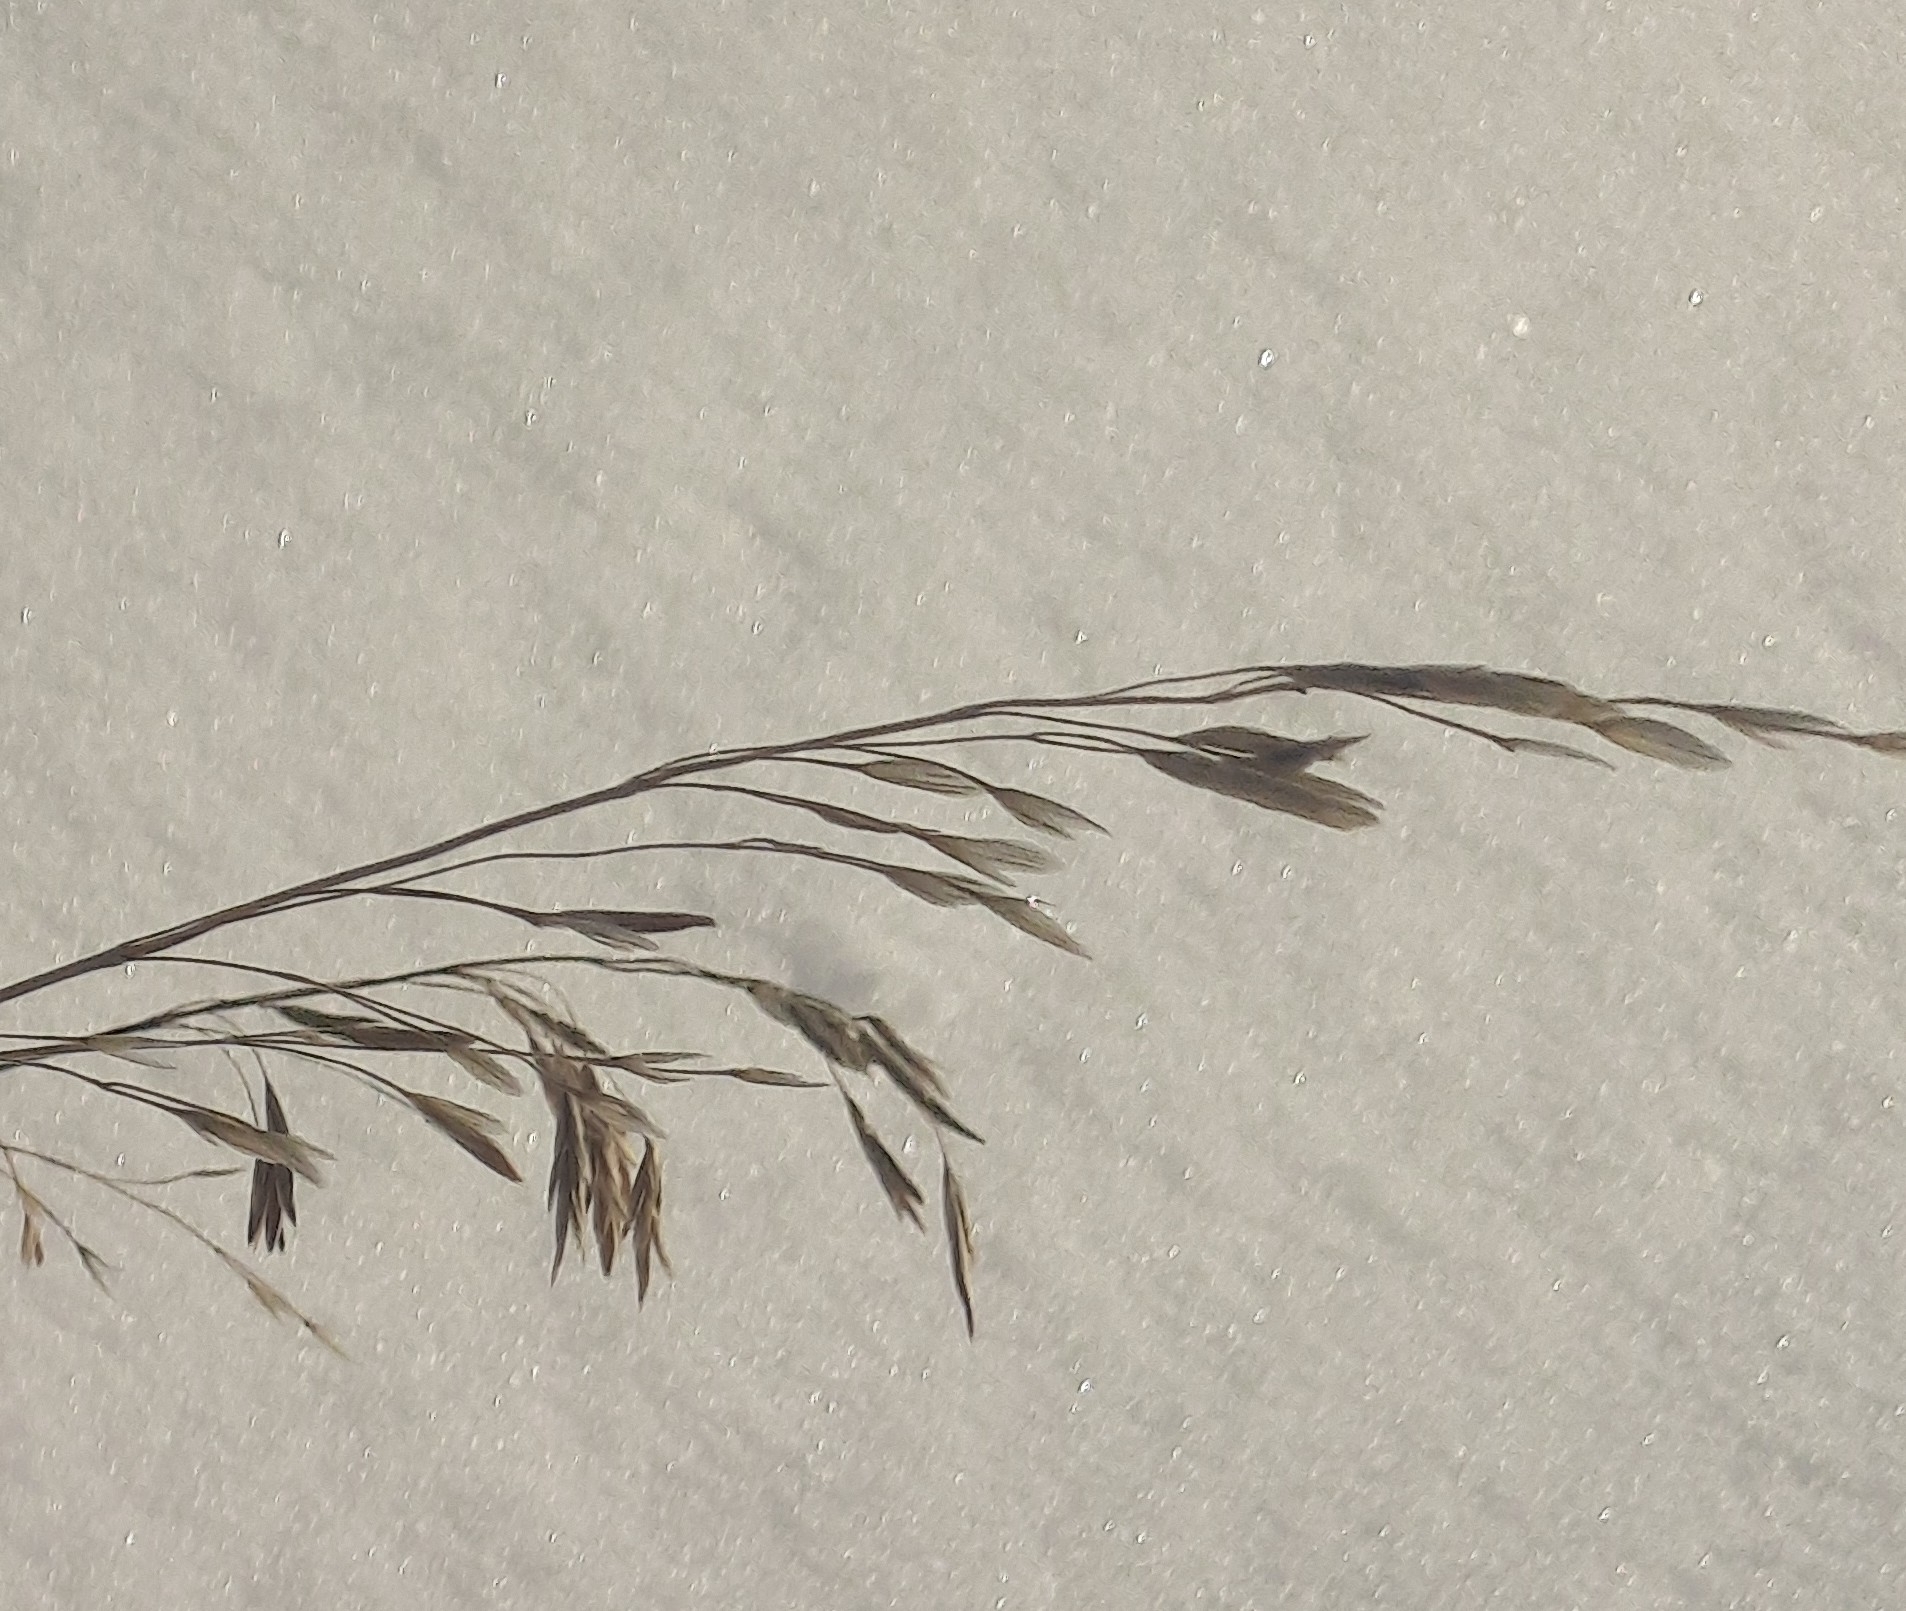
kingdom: Plantae
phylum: Tracheophyta
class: Liliopsida
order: Poales
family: Poaceae
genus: Bromus
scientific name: Bromus inermis
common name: Smooth brome
